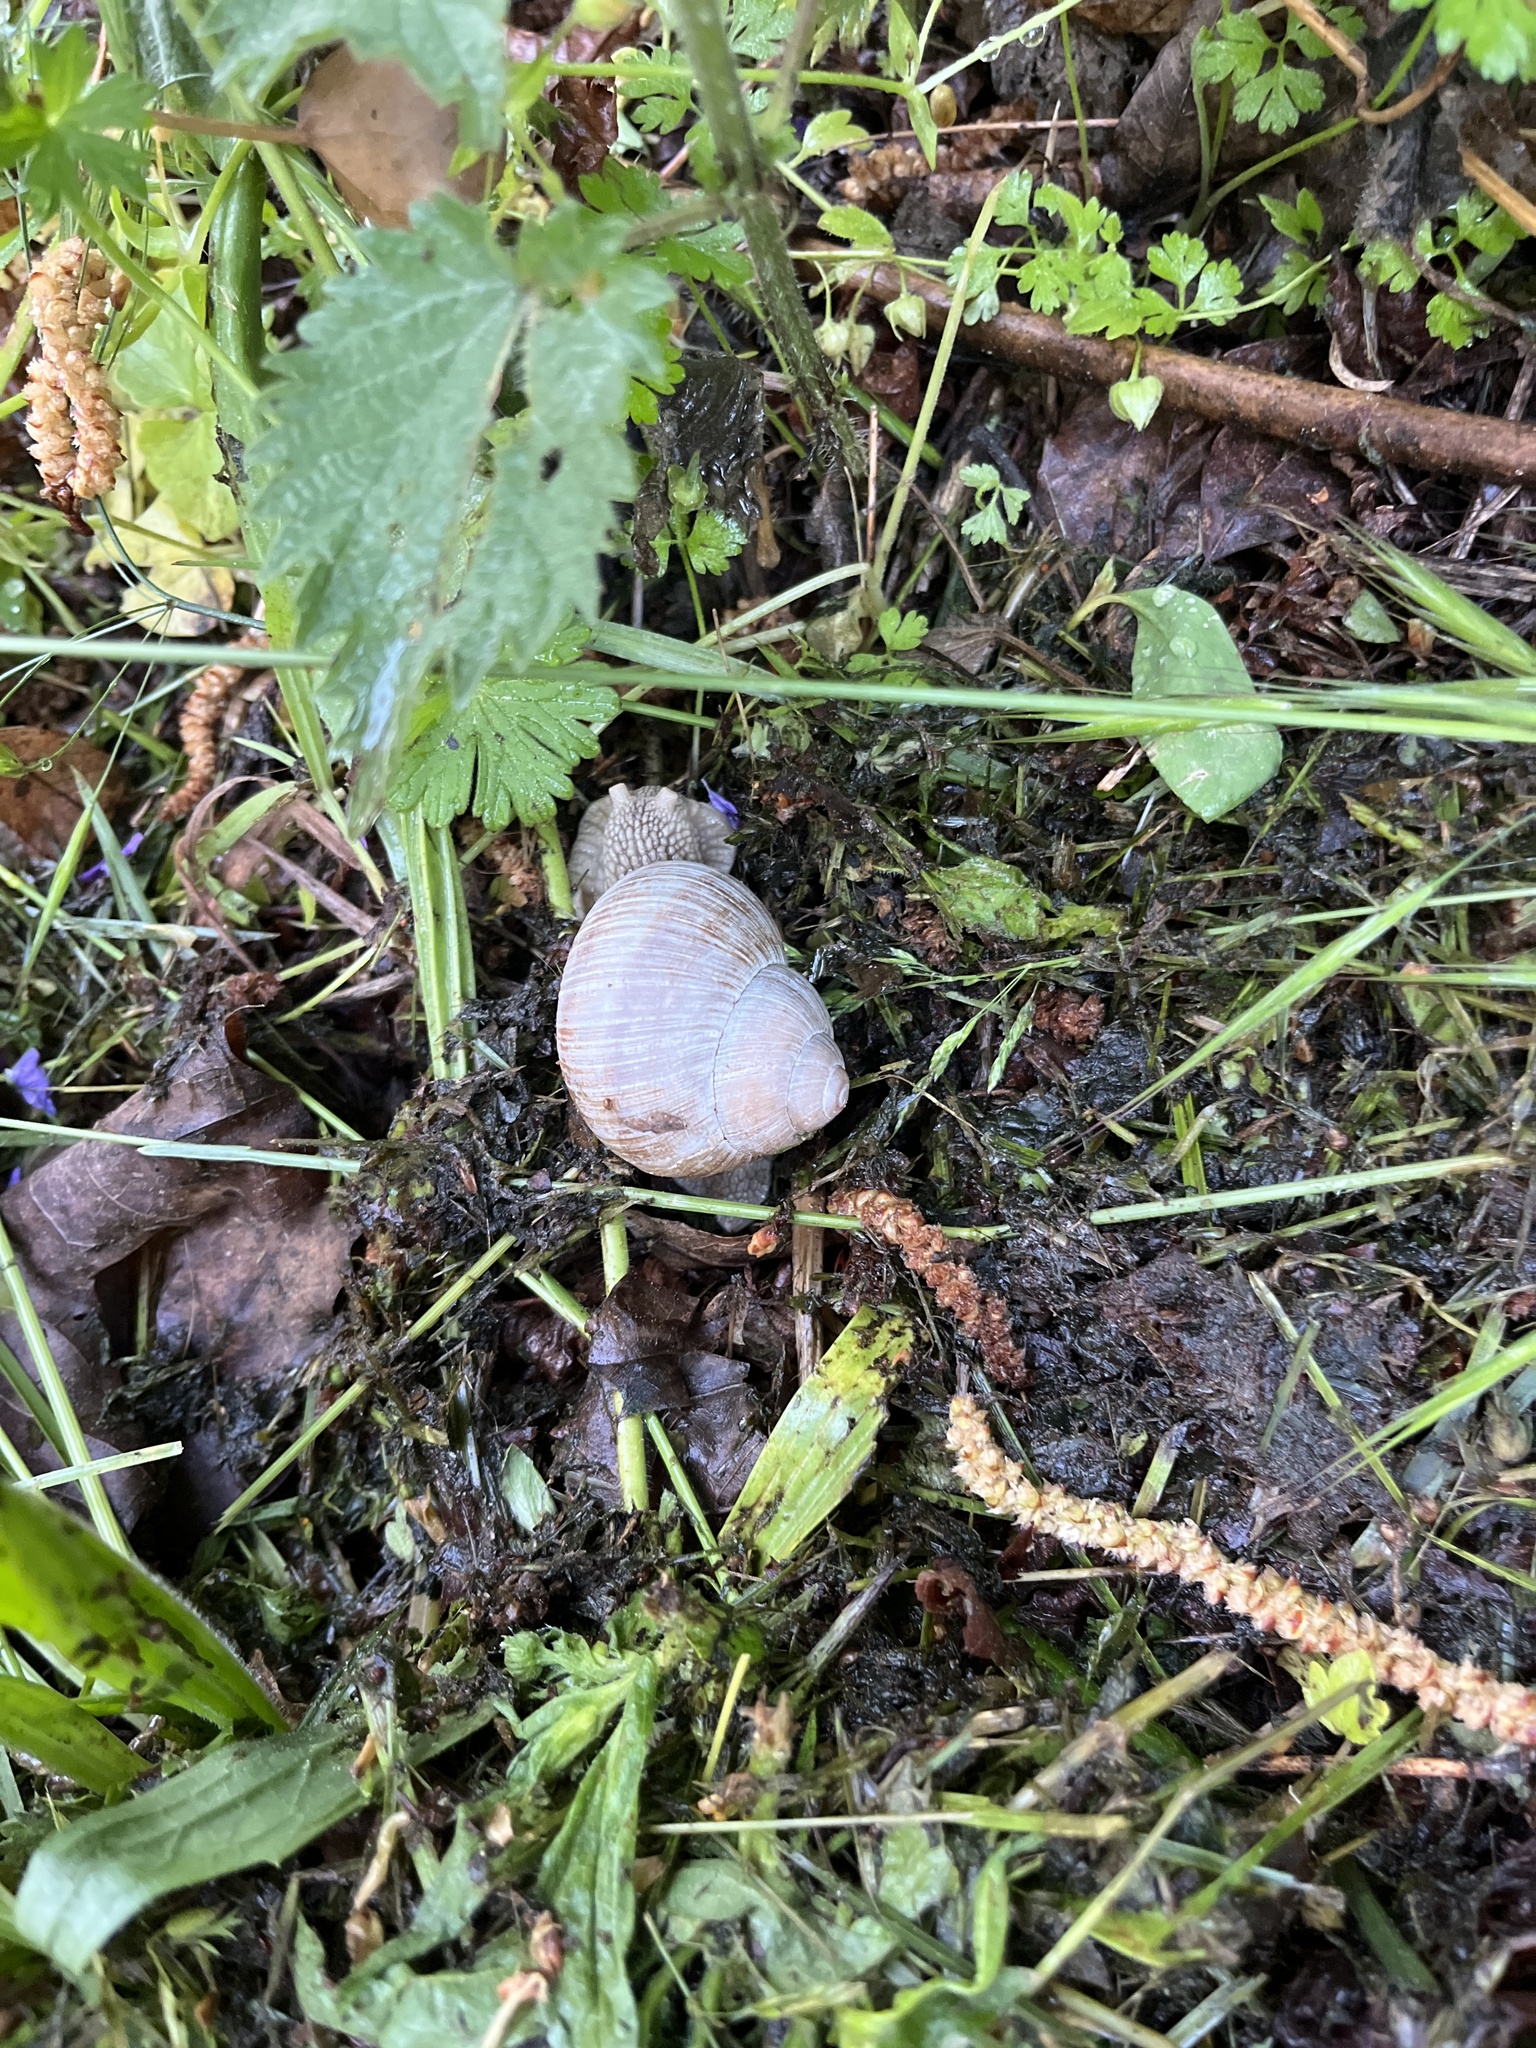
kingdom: Animalia
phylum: Mollusca
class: Gastropoda
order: Stylommatophora
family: Helicidae
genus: Helix
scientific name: Helix pomatia
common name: Roman snail
